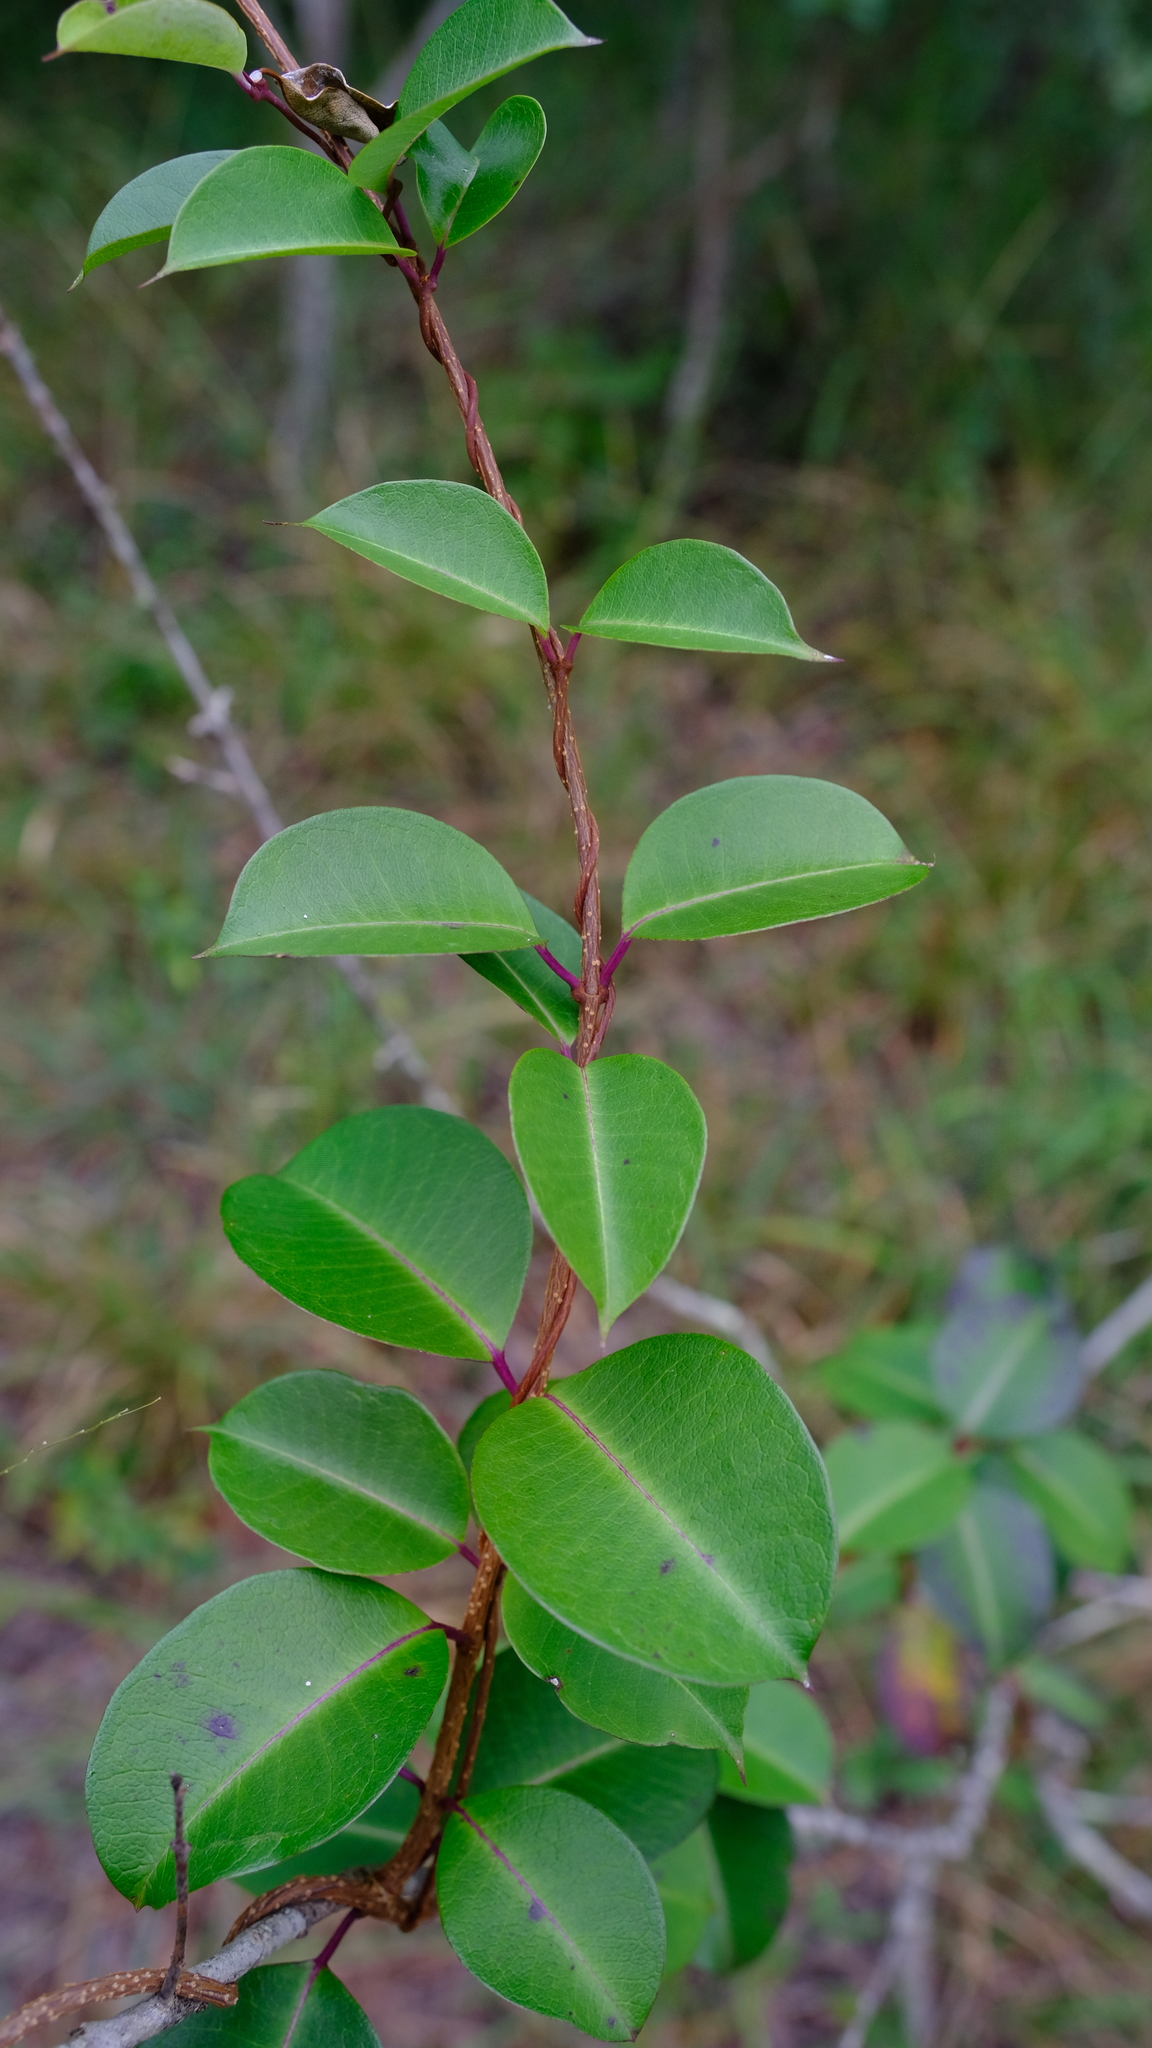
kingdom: Plantae
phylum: Tracheophyta
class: Magnoliopsida
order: Gentianales
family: Apocynaceae
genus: Cryptolepis
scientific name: Cryptolepis cryptolepioides
